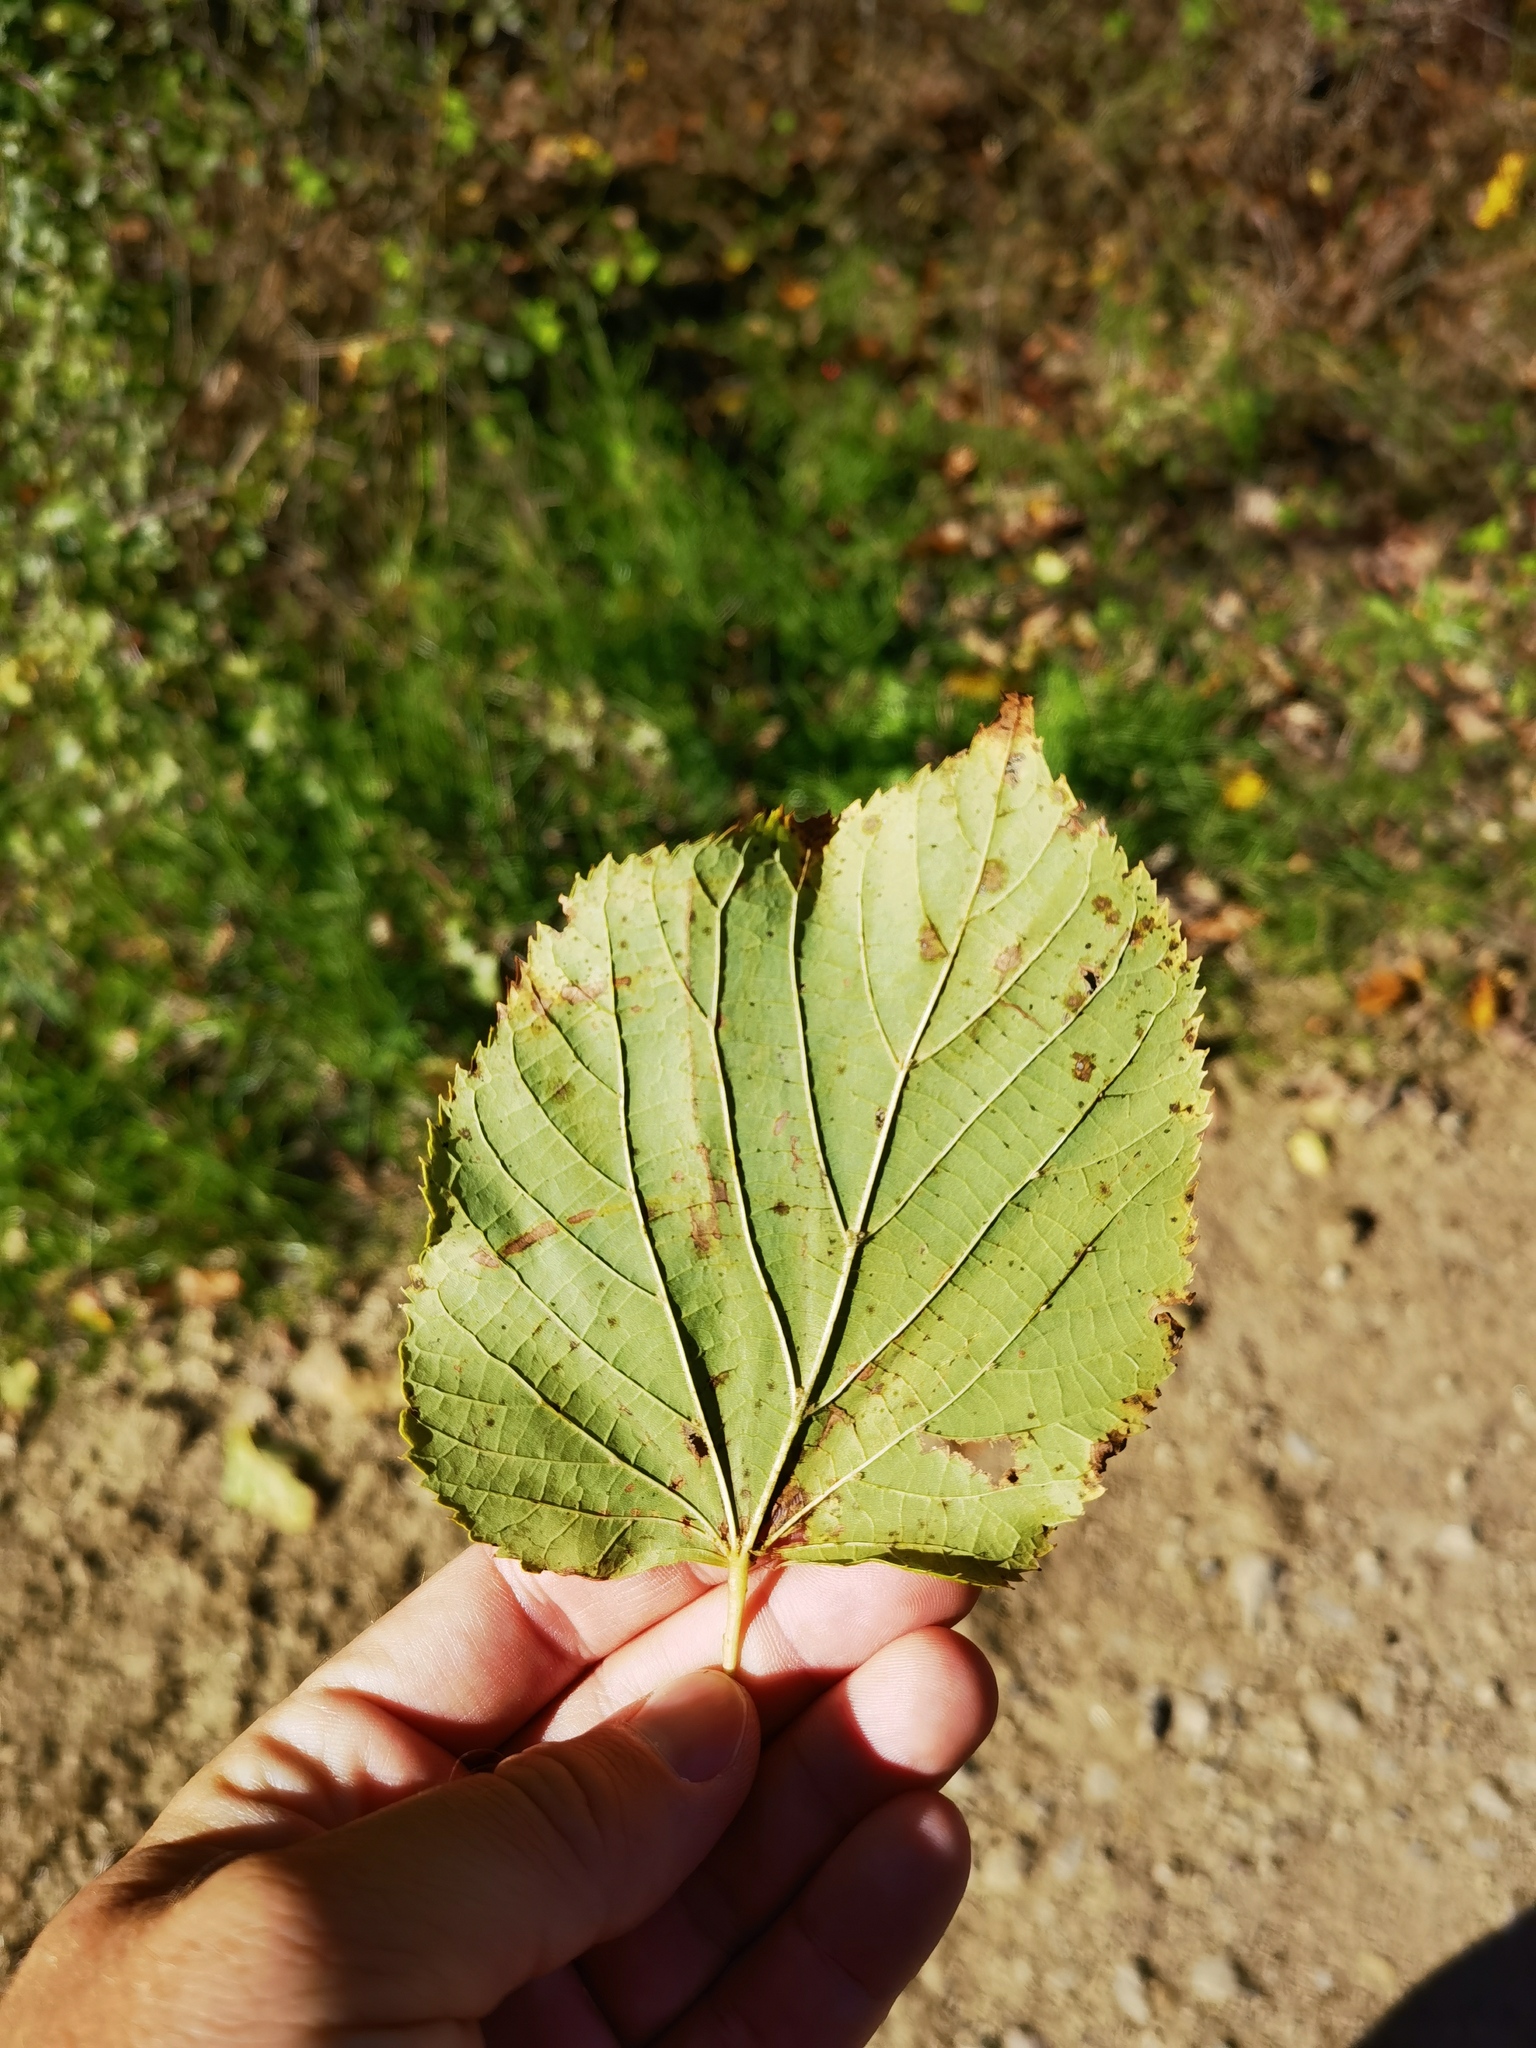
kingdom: Plantae
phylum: Tracheophyta
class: Magnoliopsida
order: Malvales
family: Malvaceae
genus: Tilia
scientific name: Tilia cordata
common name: Small-leaved lime
